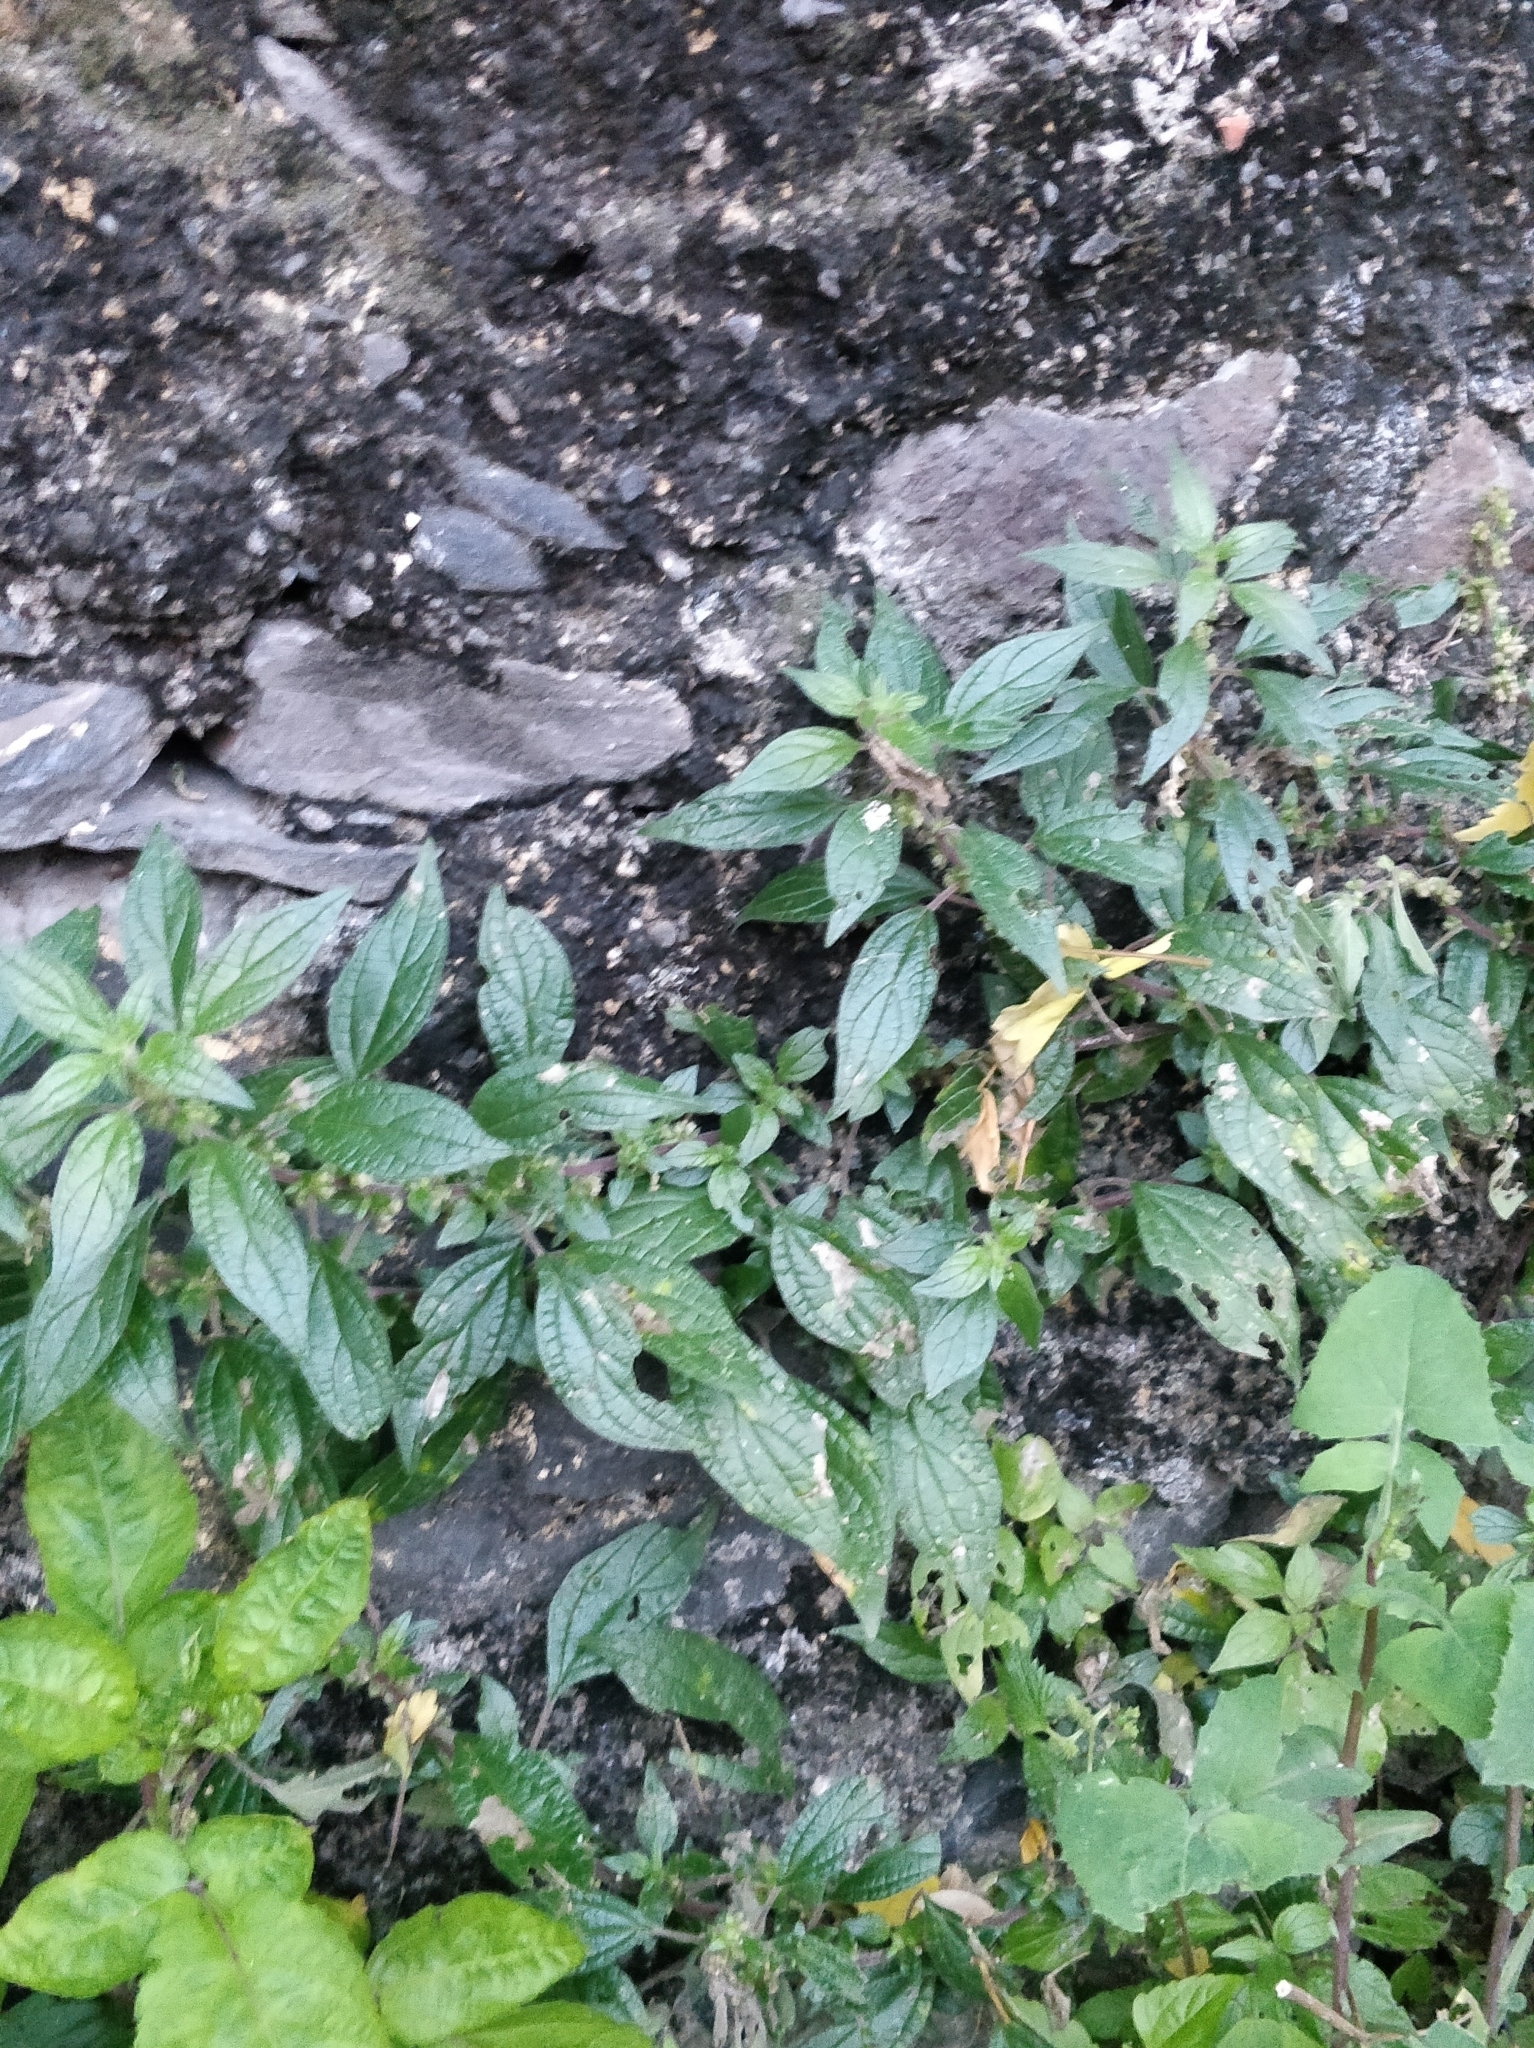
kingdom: Plantae
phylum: Tracheophyta
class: Magnoliopsida
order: Rosales
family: Urticaceae
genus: Parietaria
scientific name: Parietaria judaica
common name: Pellitory-of-the-wall
